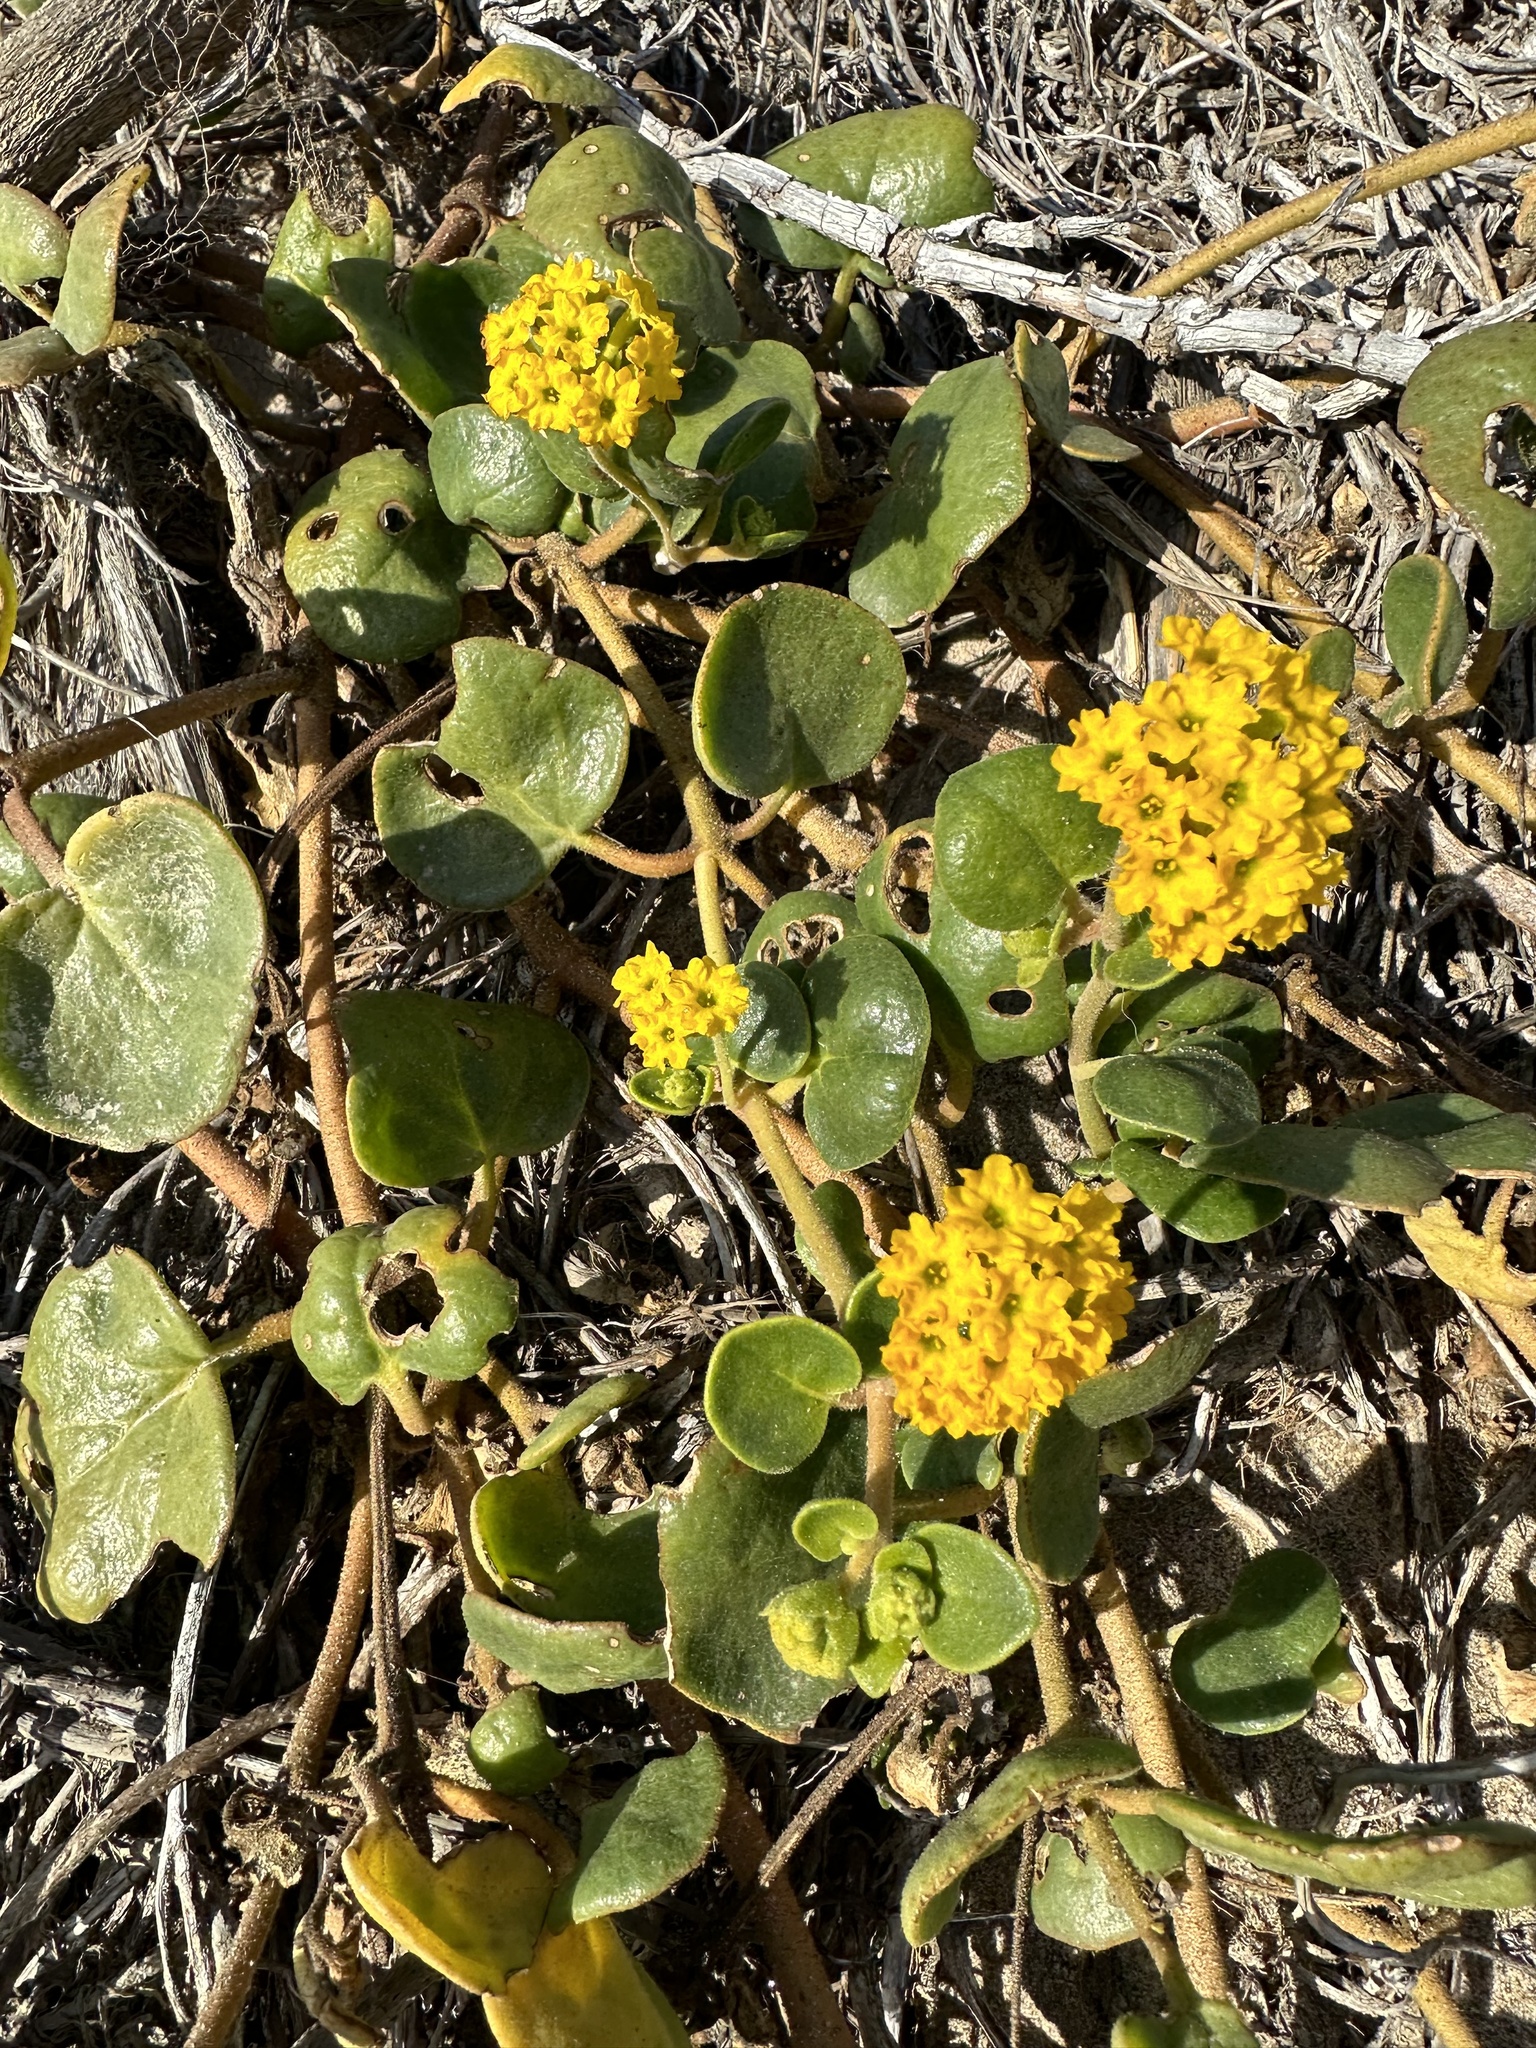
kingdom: Plantae
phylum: Tracheophyta
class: Magnoliopsida
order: Caryophyllales
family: Nyctaginaceae
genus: Abronia
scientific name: Abronia latifolia
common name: Yellow sand-verbena
